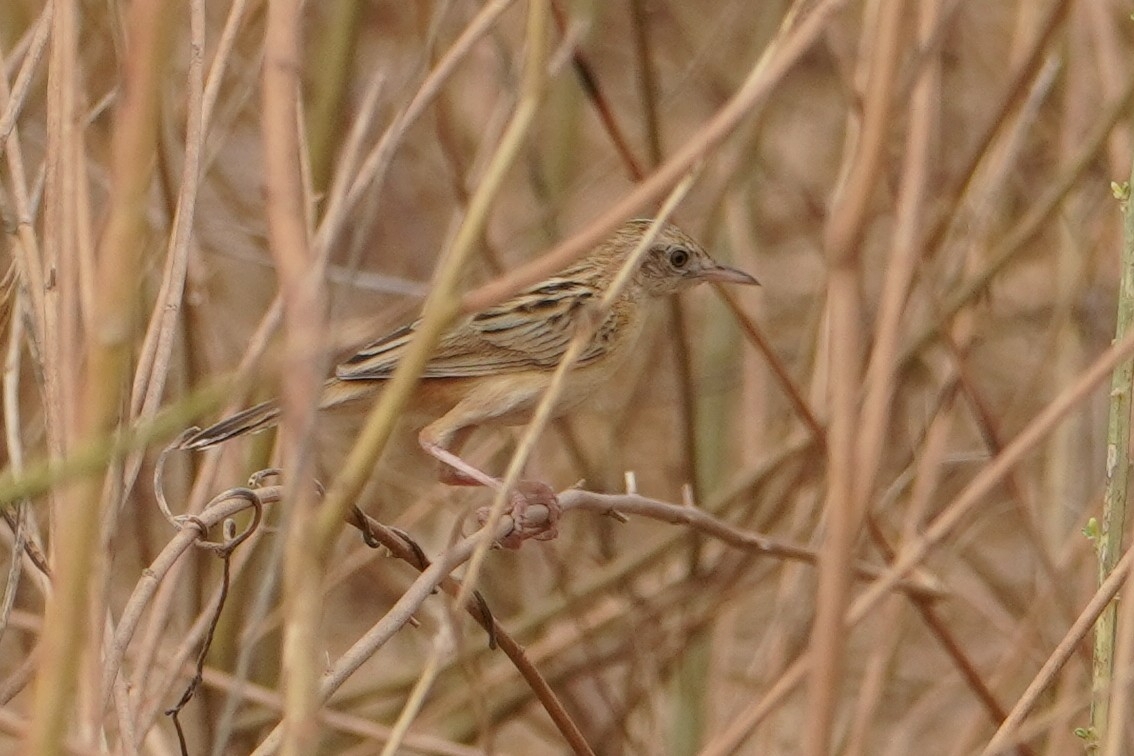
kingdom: Animalia
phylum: Chordata
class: Aves
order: Passeriformes
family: Cisticolidae
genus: Cisticola
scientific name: Cisticola juncidis
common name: Zitting cisticola
